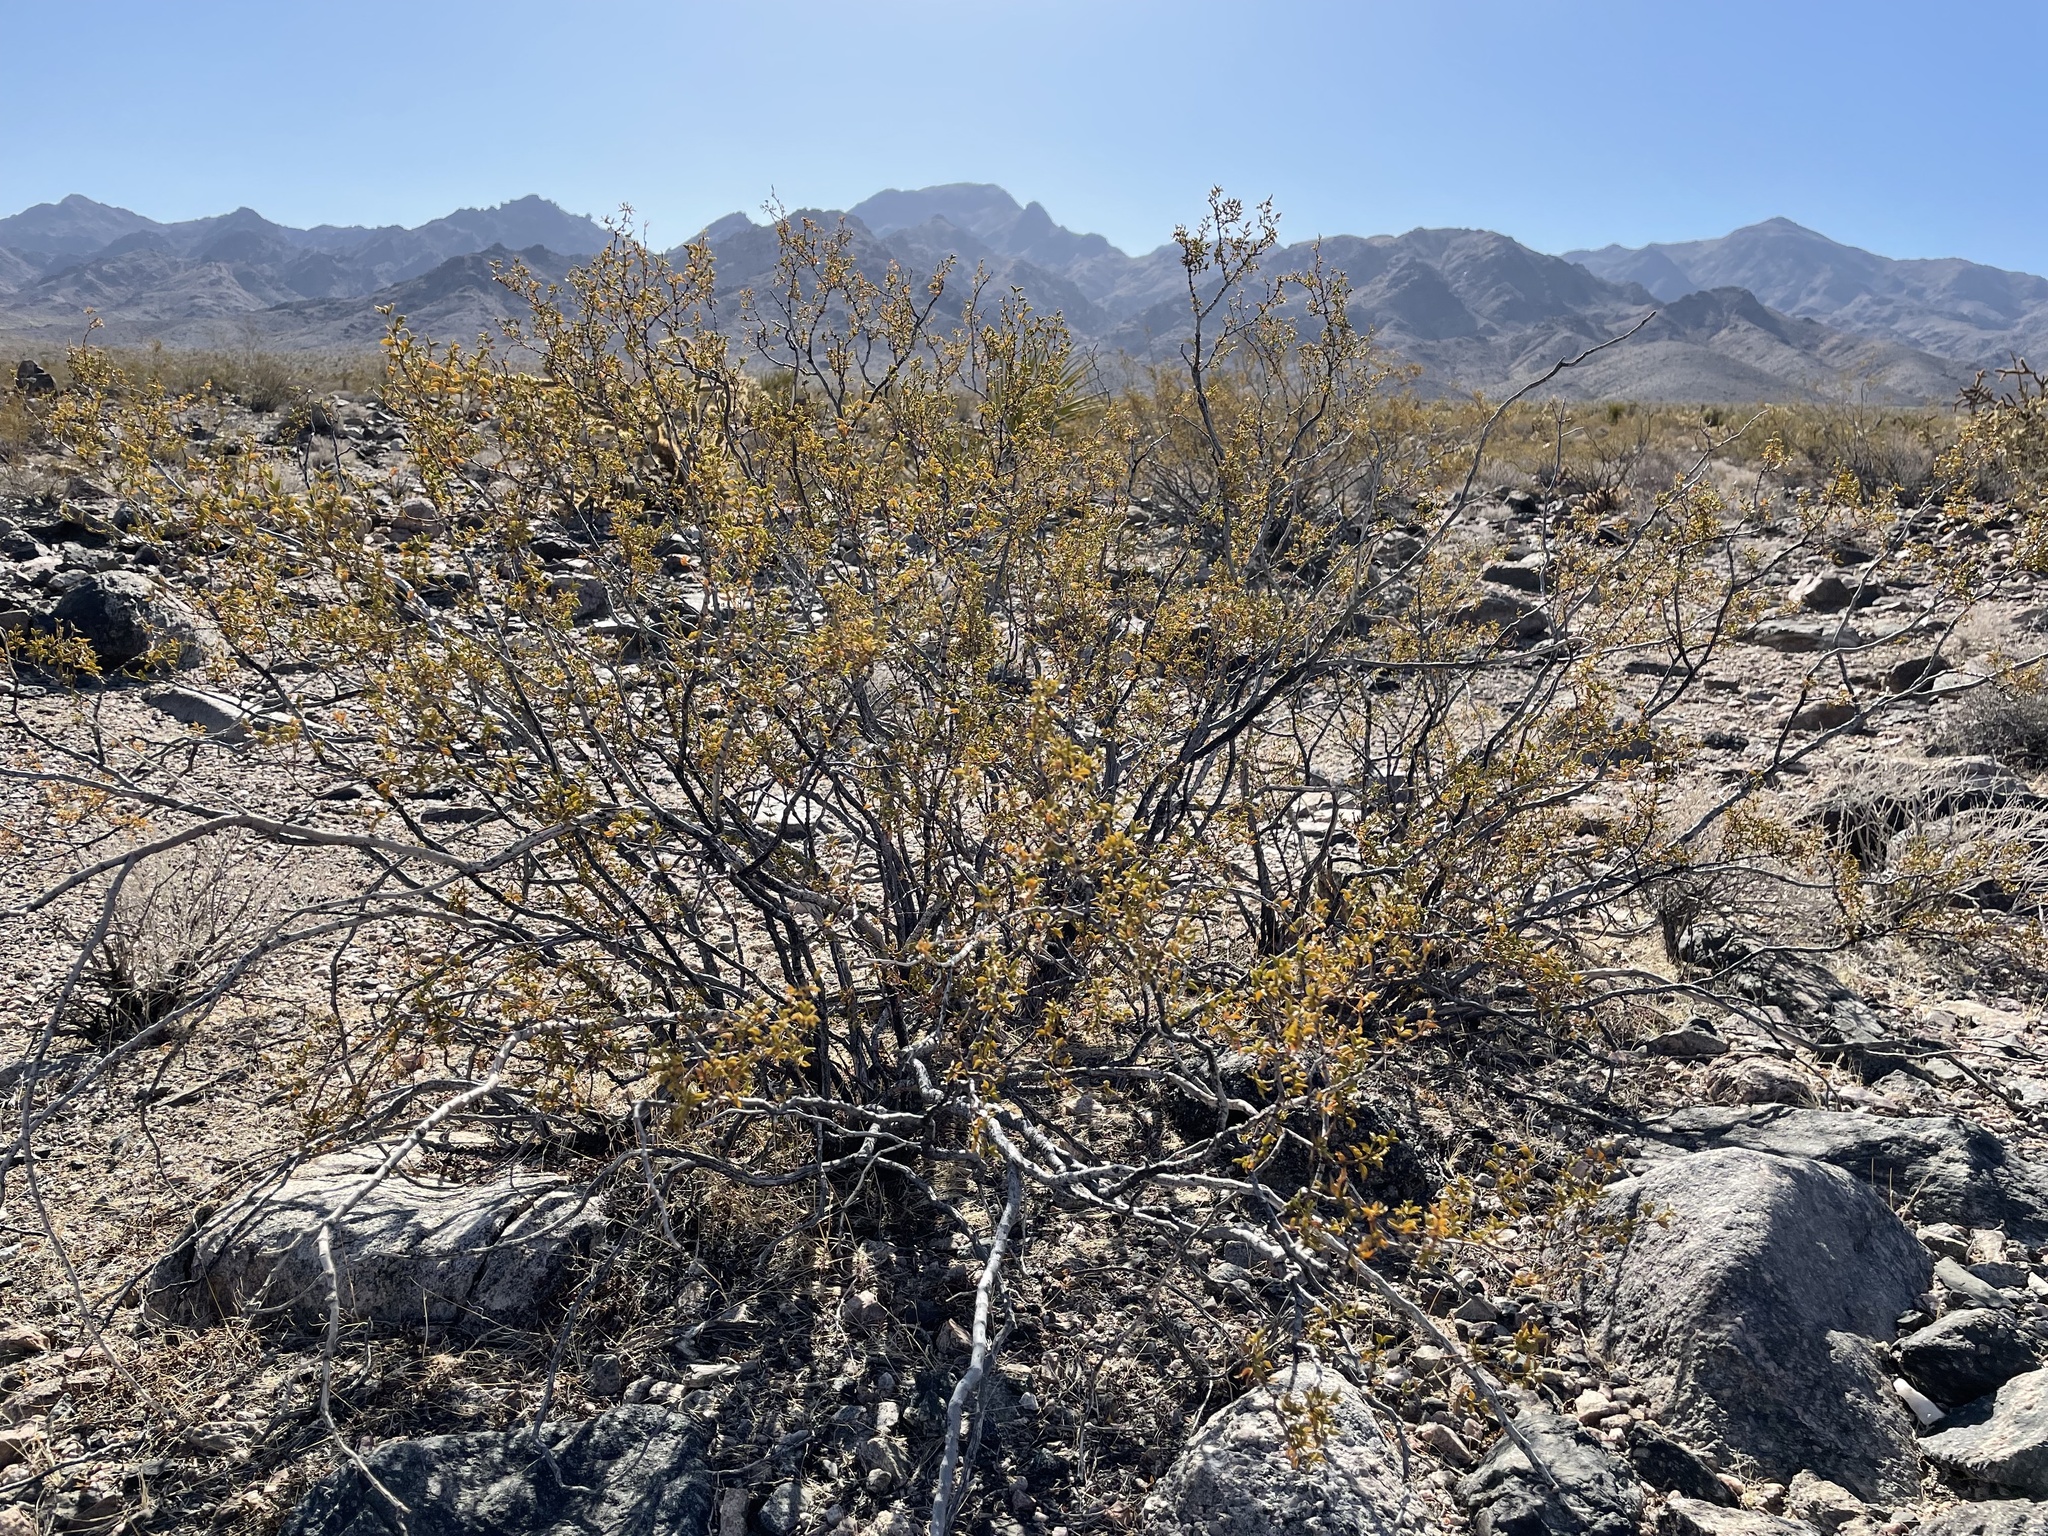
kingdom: Plantae
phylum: Tracheophyta
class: Magnoliopsida
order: Zygophyllales
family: Zygophyllaceae
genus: Larrea
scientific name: Larrea tridentata
